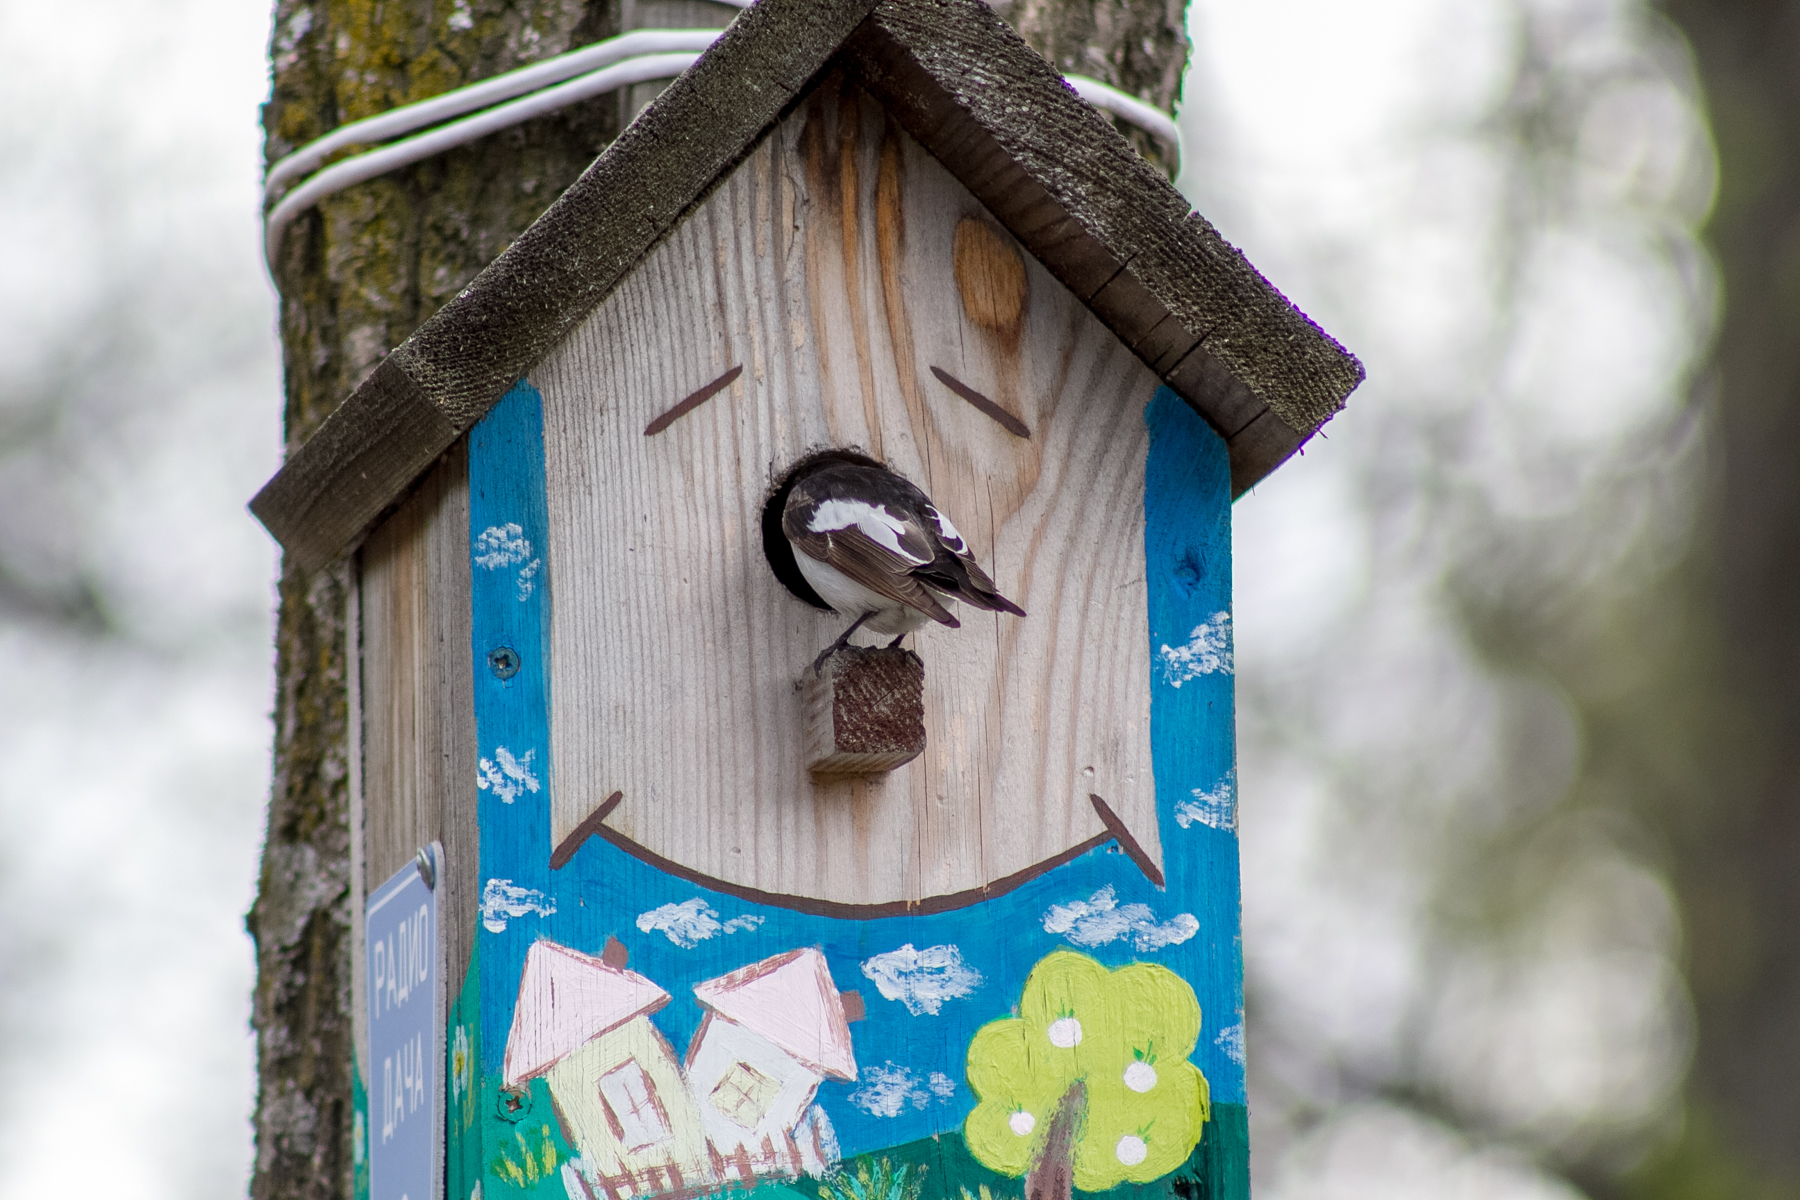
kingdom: Animalia
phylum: Chordata
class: Aves
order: Passeriformes
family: Muscicapidae
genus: Ficedula
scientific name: Ficedula hypoleuca
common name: European pied flycatcher
